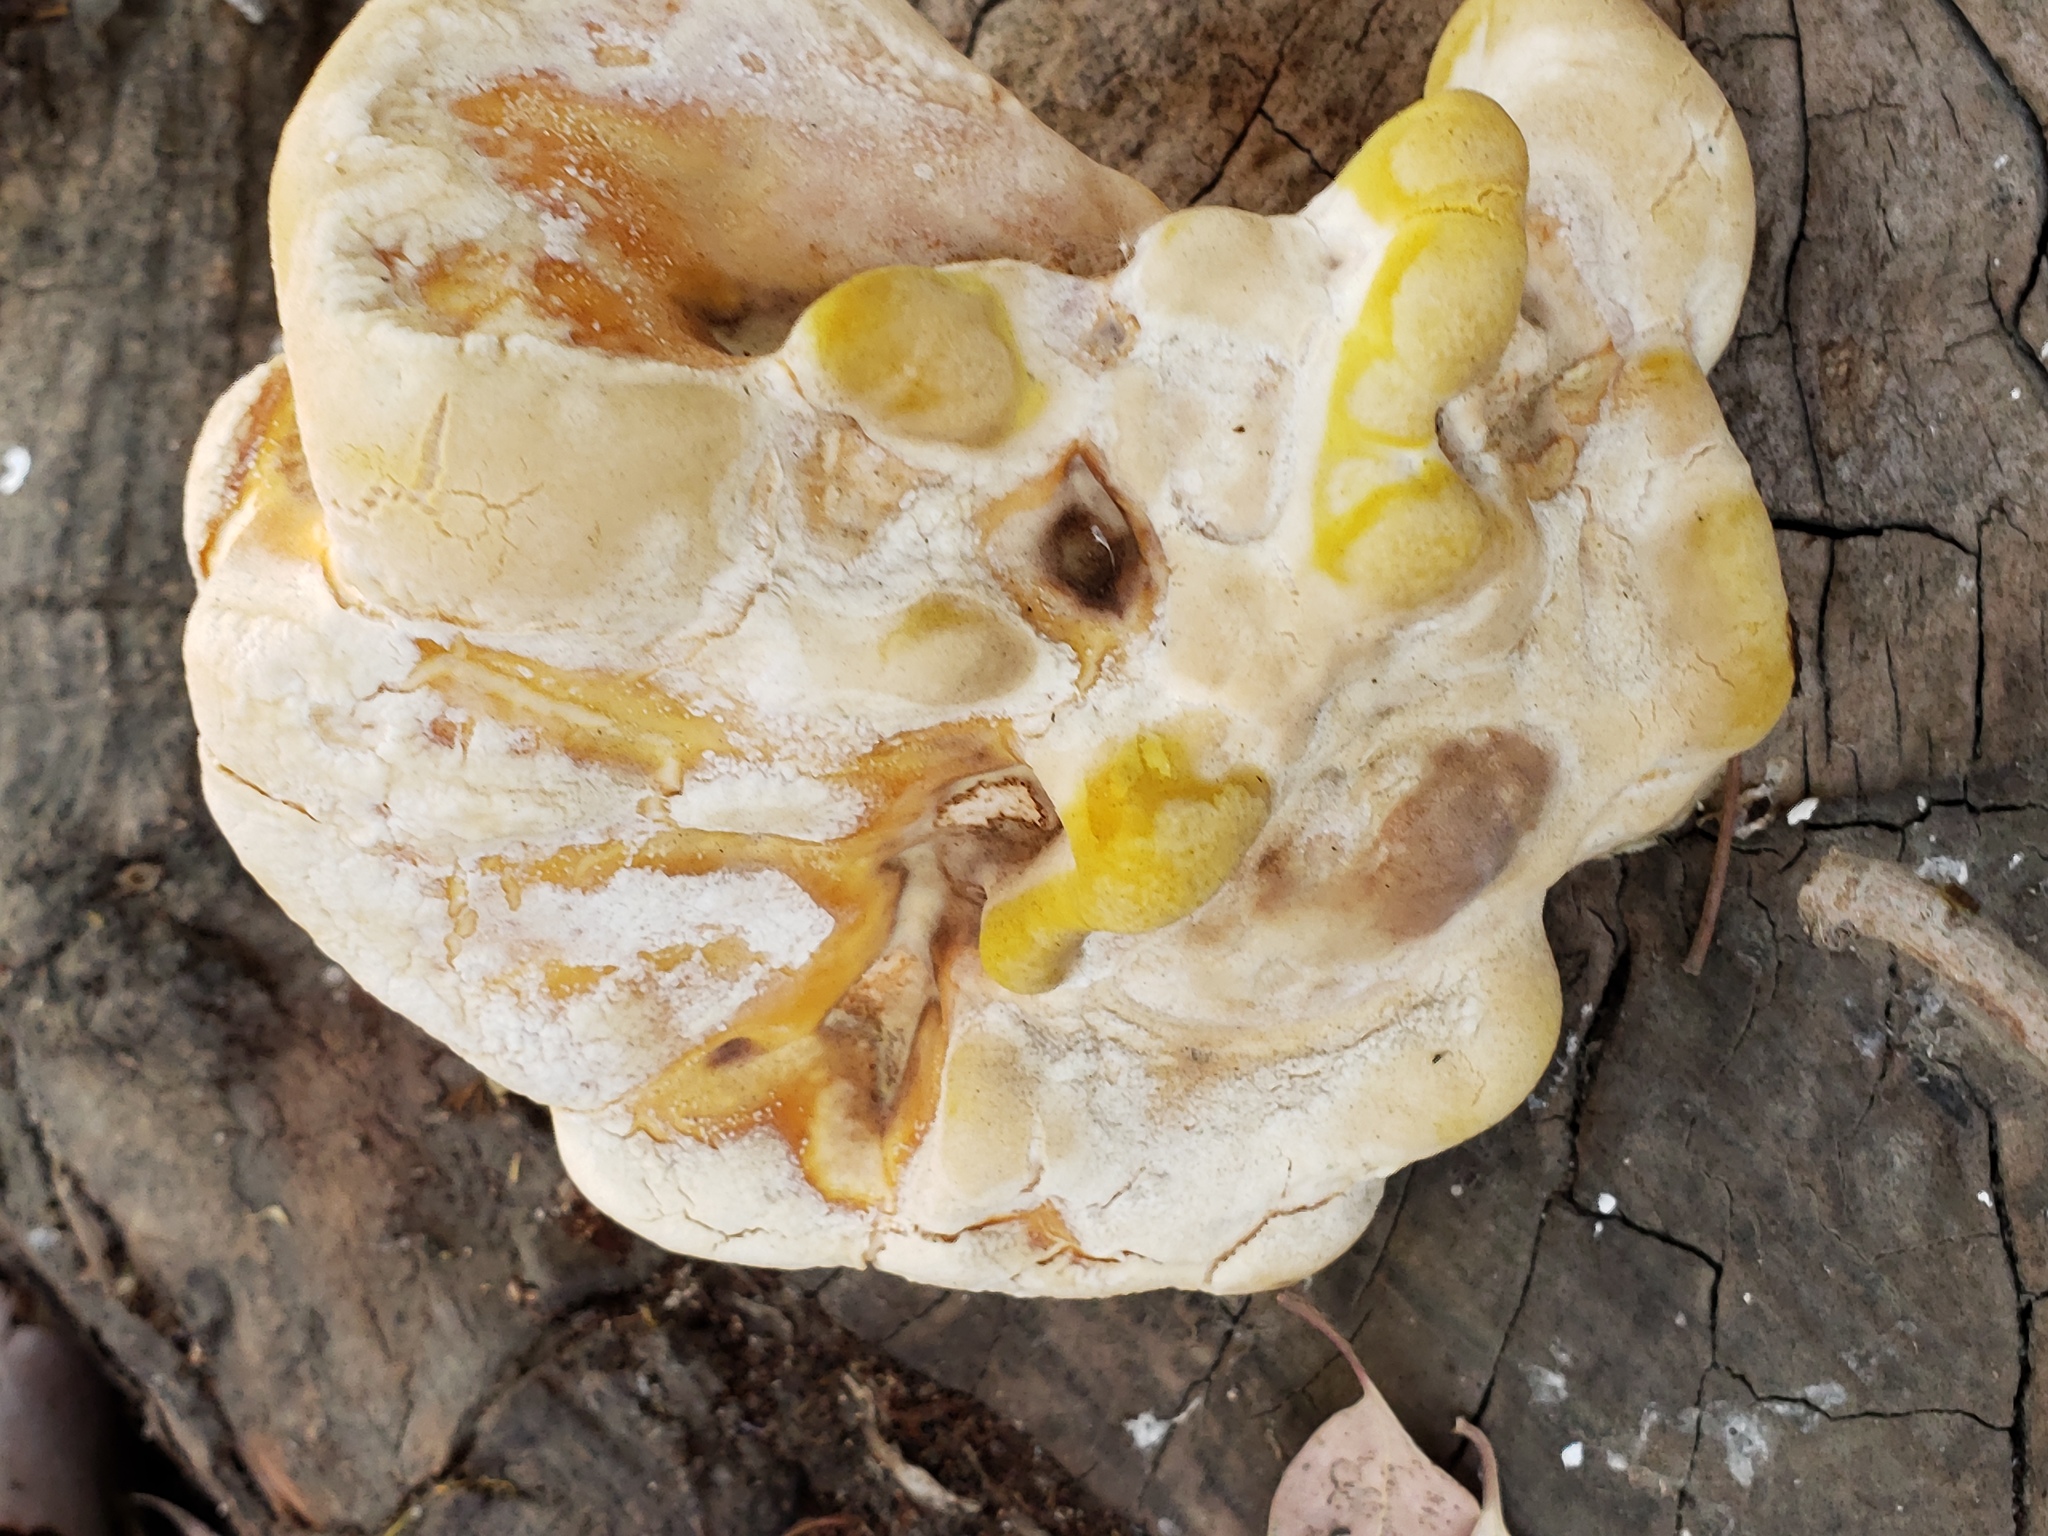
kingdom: Fungi
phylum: Basidiomycota
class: Agaricomycetes
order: Polyporales
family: Laetiporaceae
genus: Laetiporus
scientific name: Laetiporus gilbertsonii
